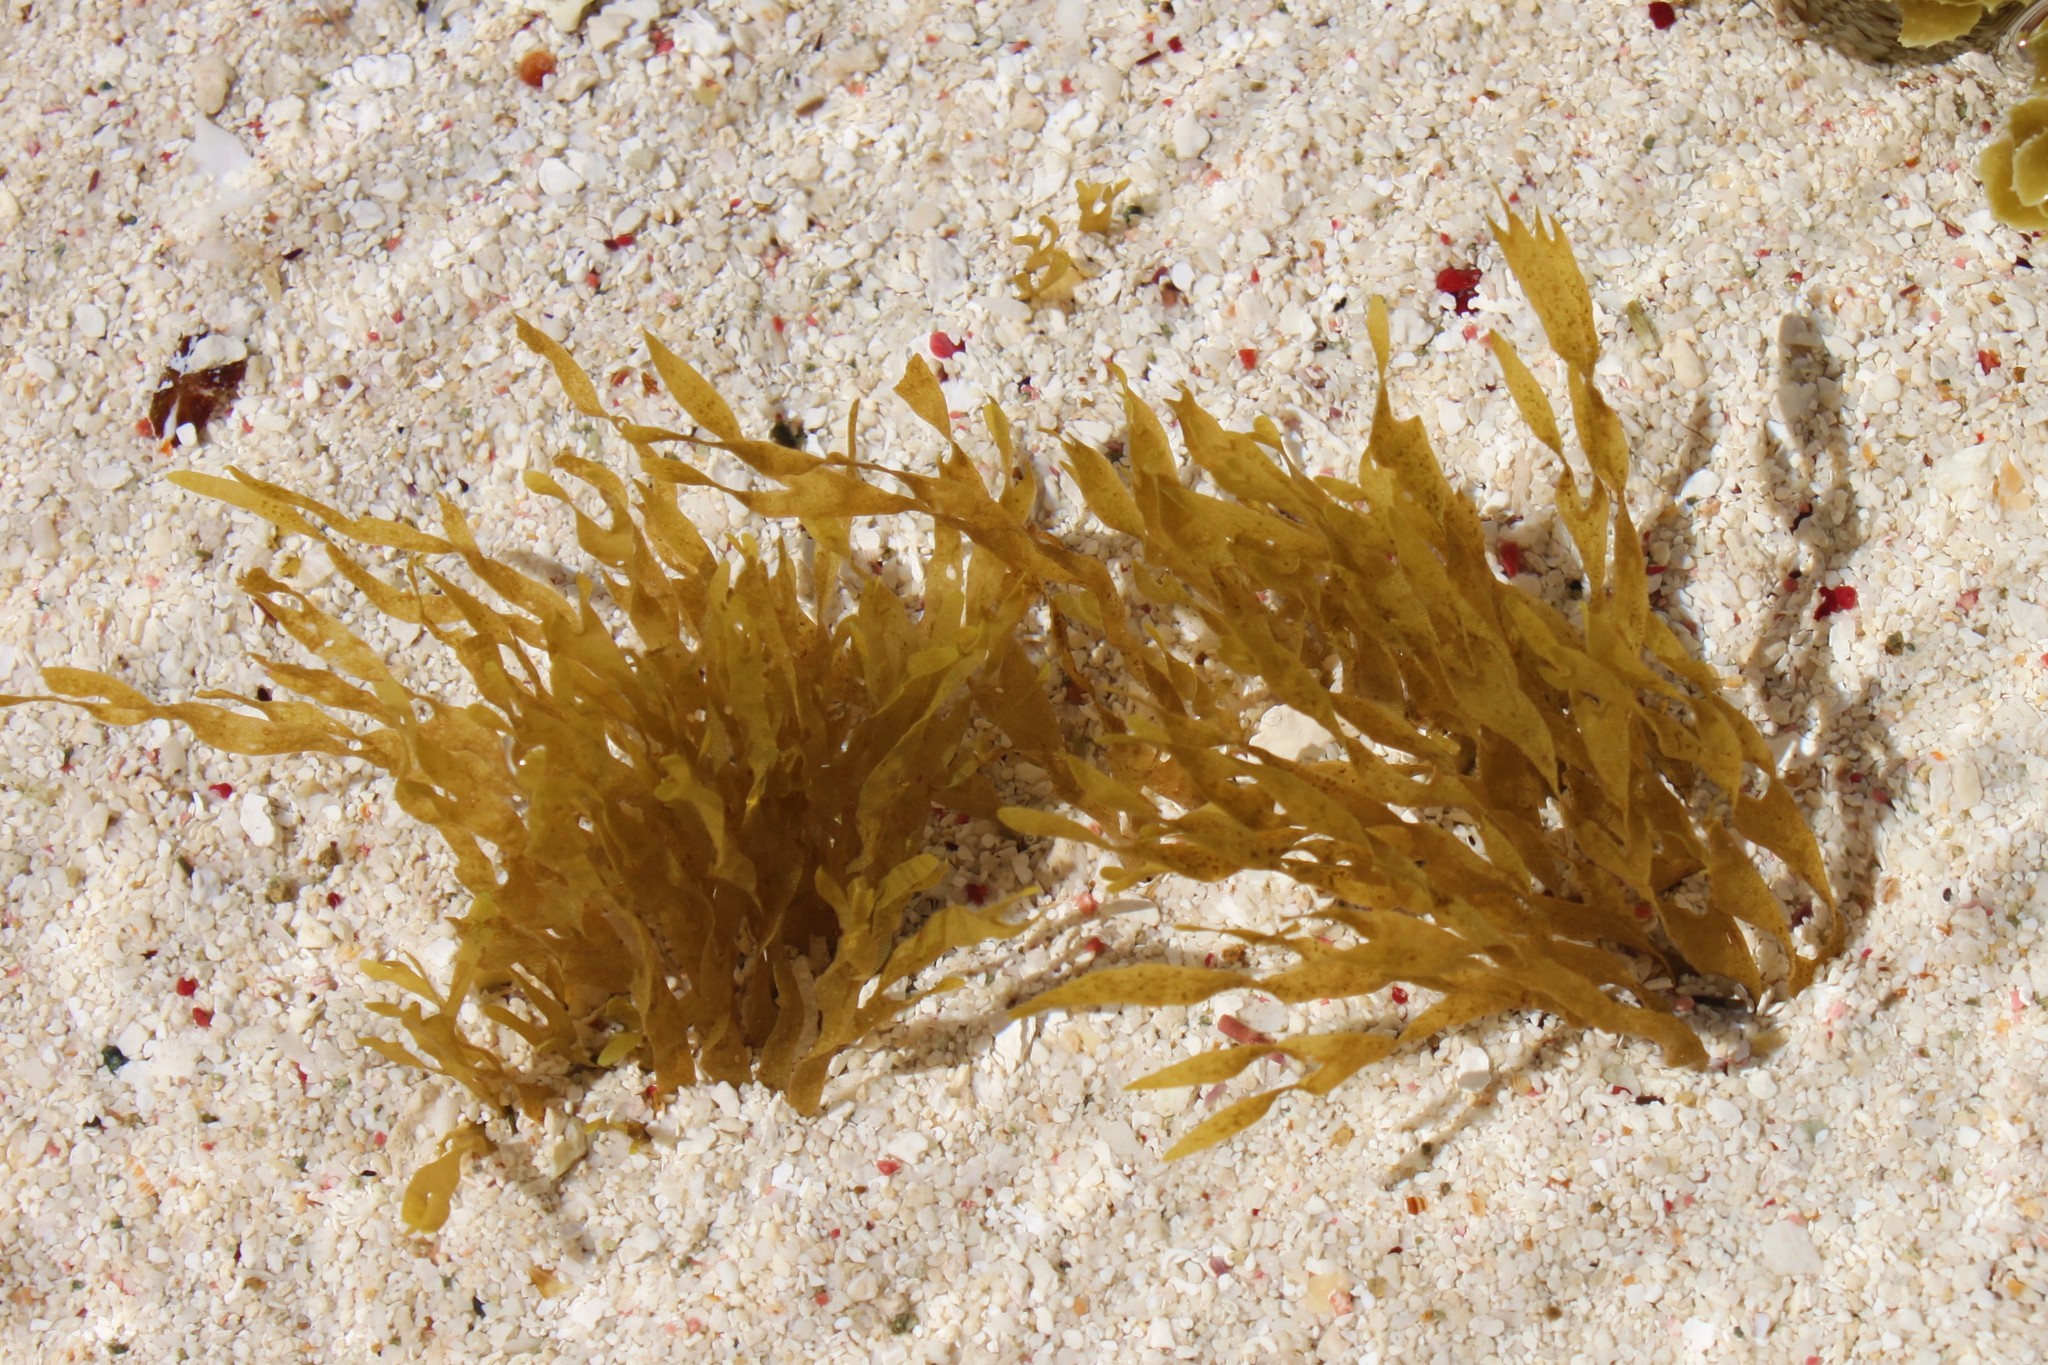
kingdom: Chromista
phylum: Ochrophyta
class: Phaeophyceae
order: Dictyotales
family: Dictyotaceae
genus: Dictyota
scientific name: Dictyota dichotoma
